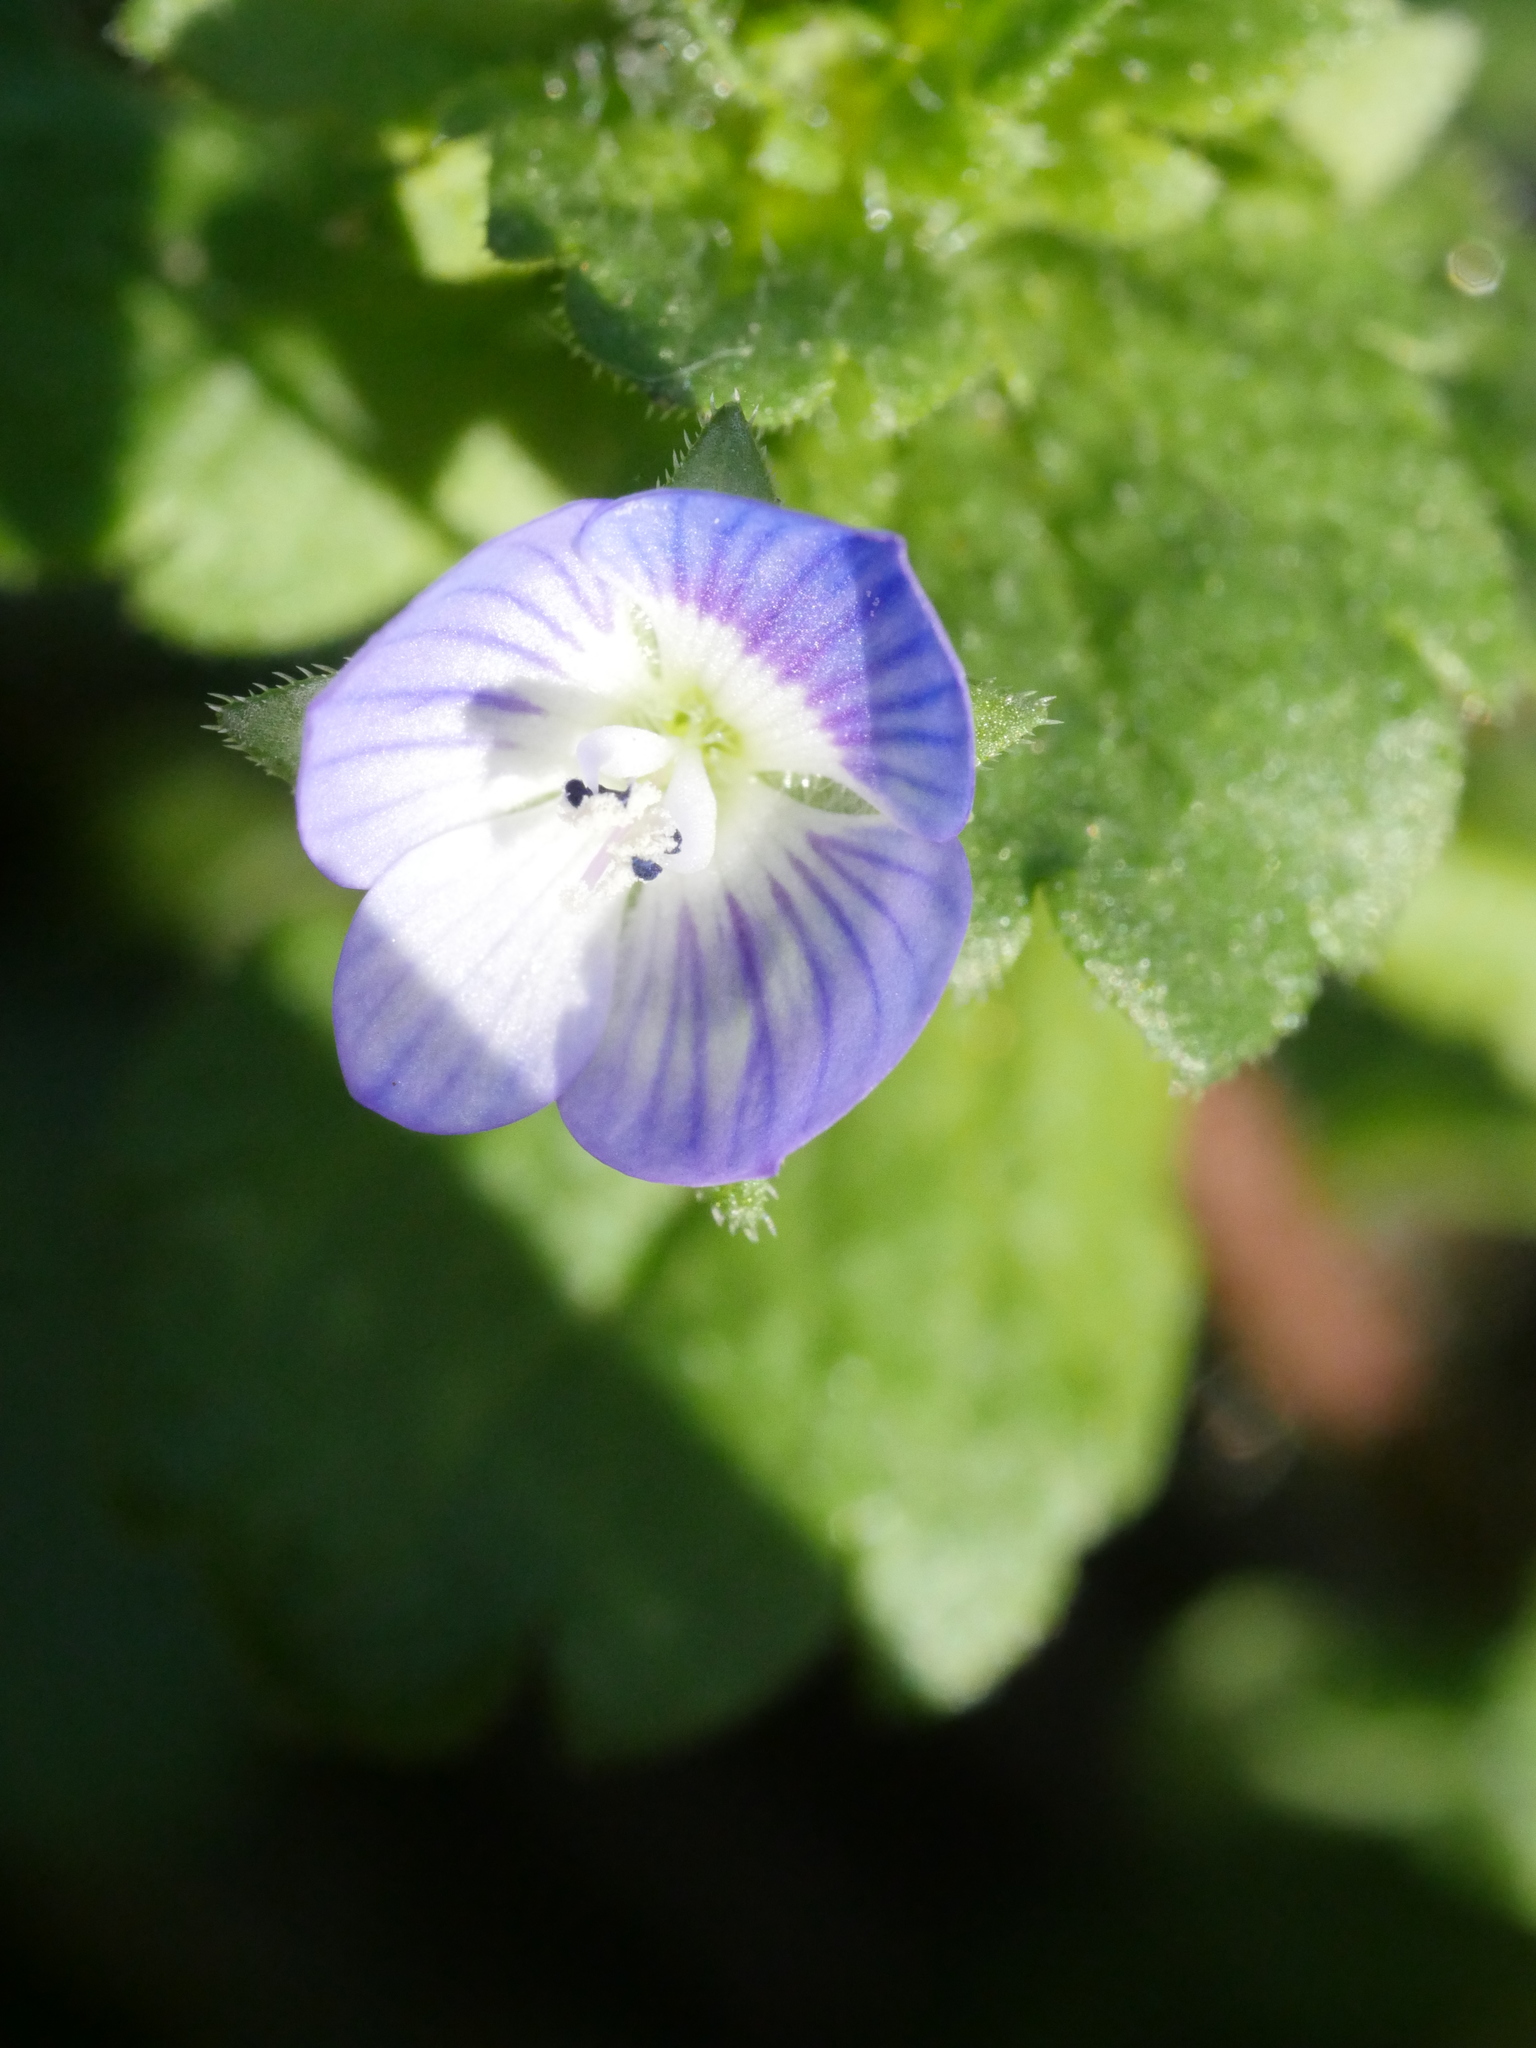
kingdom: Plantae
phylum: Tracheophyta
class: Magnoliopsida
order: Lamiales
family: Plantaginaceae
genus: Veronica
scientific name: Veronica persica
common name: Common field-speedwell
